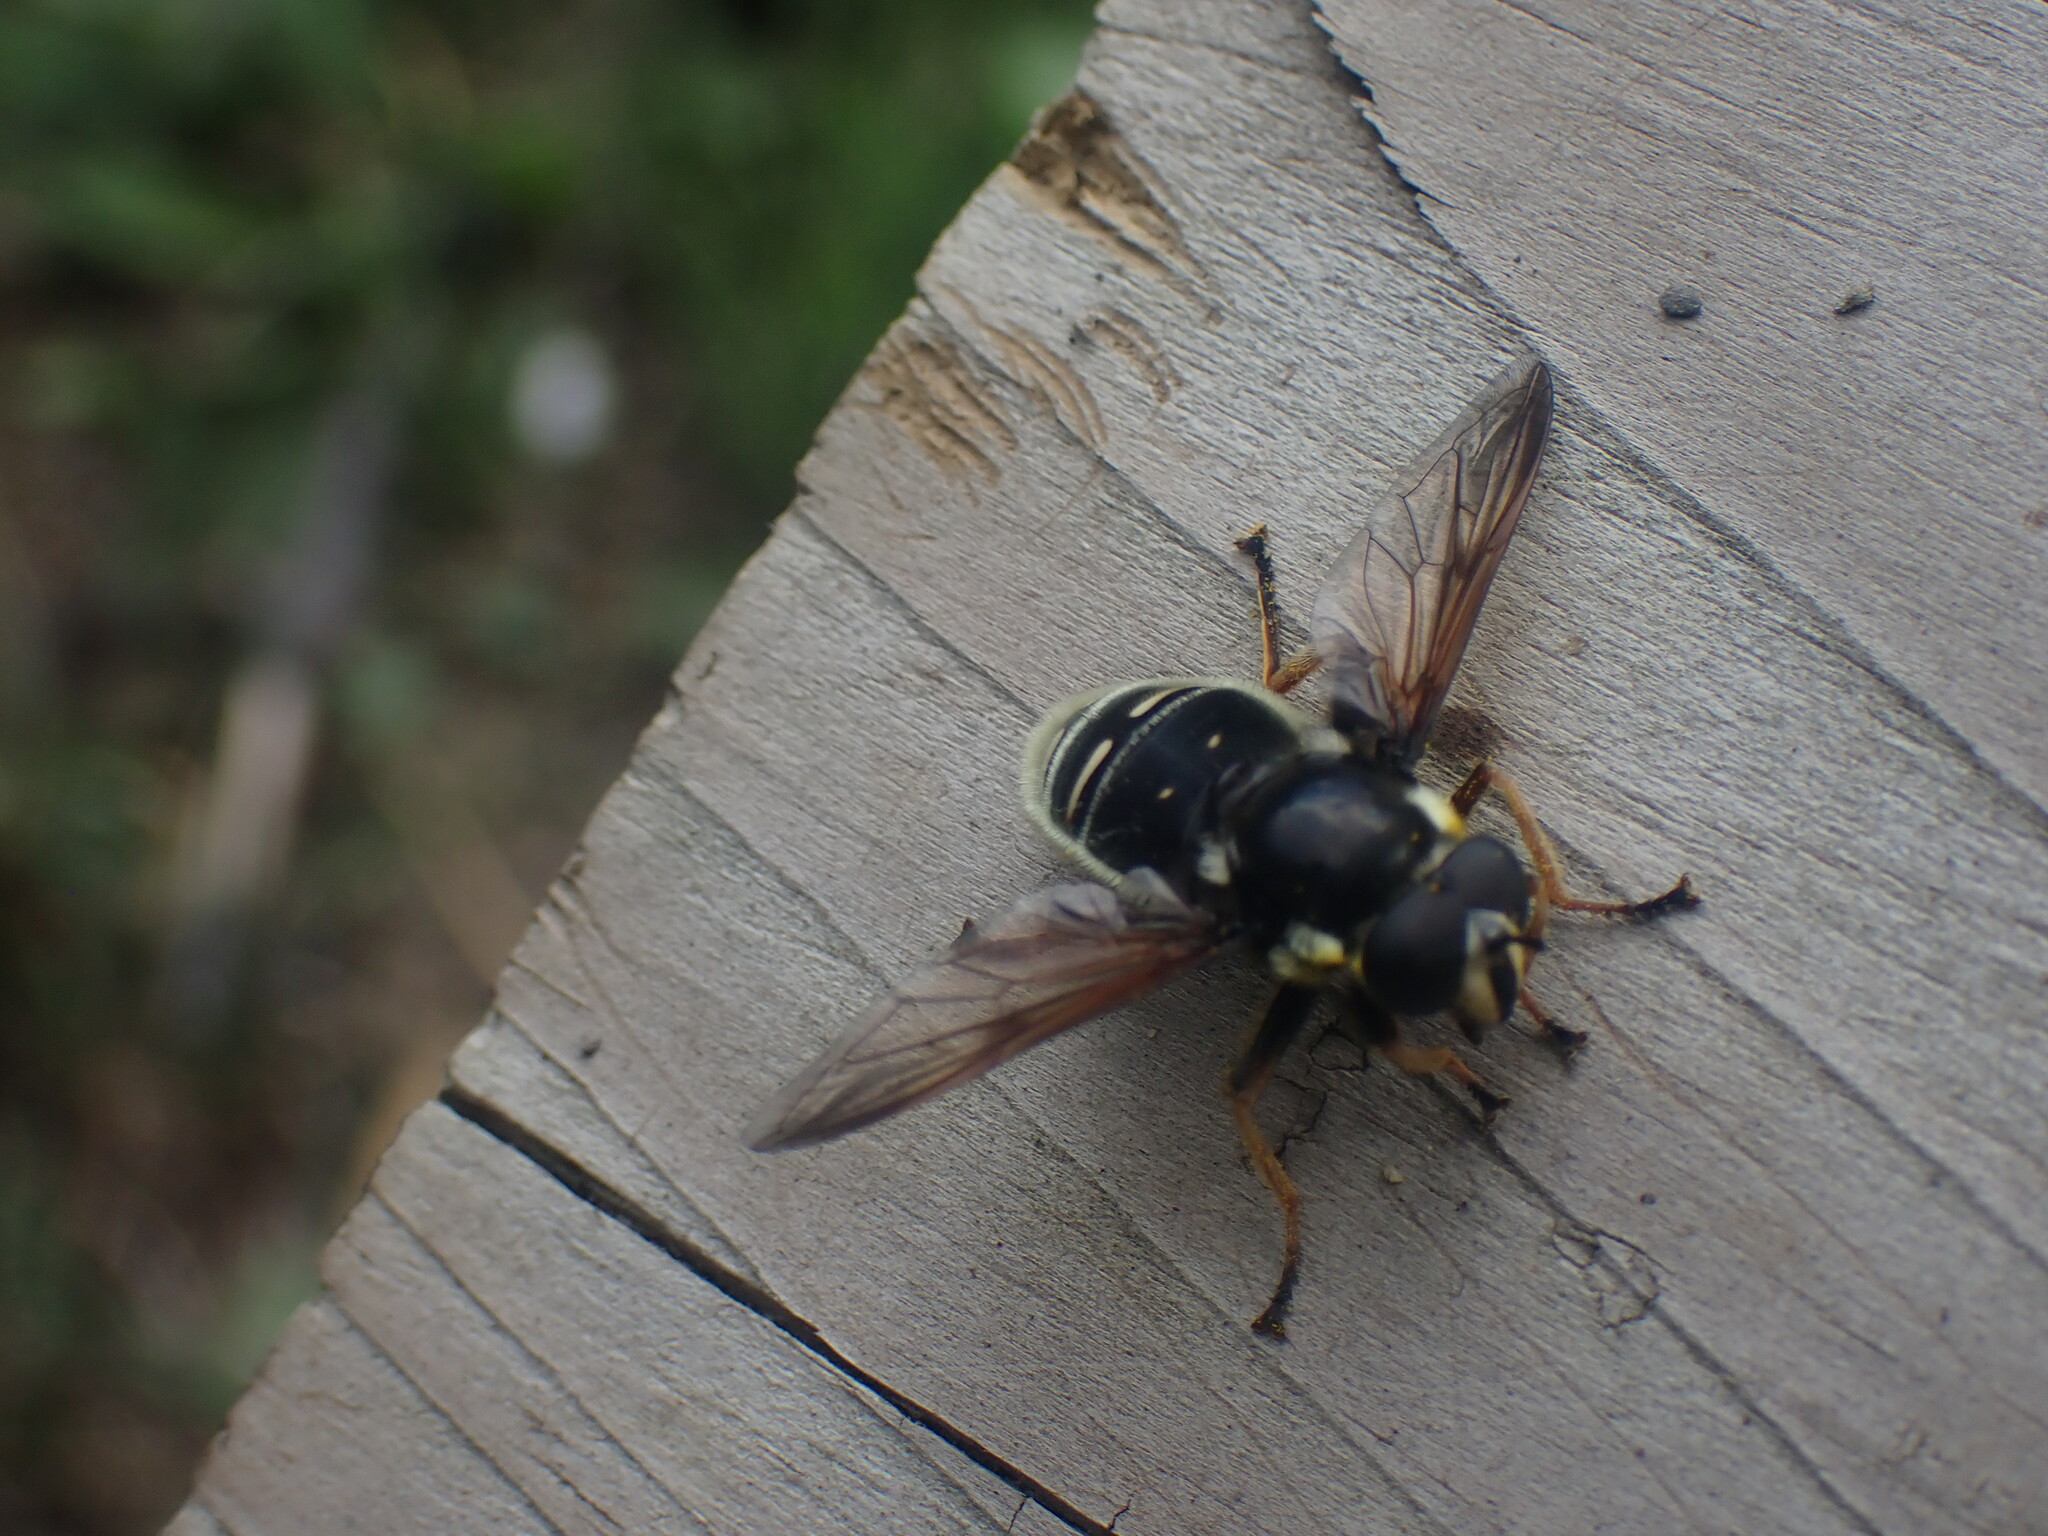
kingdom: Animalia
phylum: Arthropoda
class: Insecta
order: Diptera
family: Syrphidae
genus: Sericomyia
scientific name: Sericomyia militaris
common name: Narrow-banded pond fly
